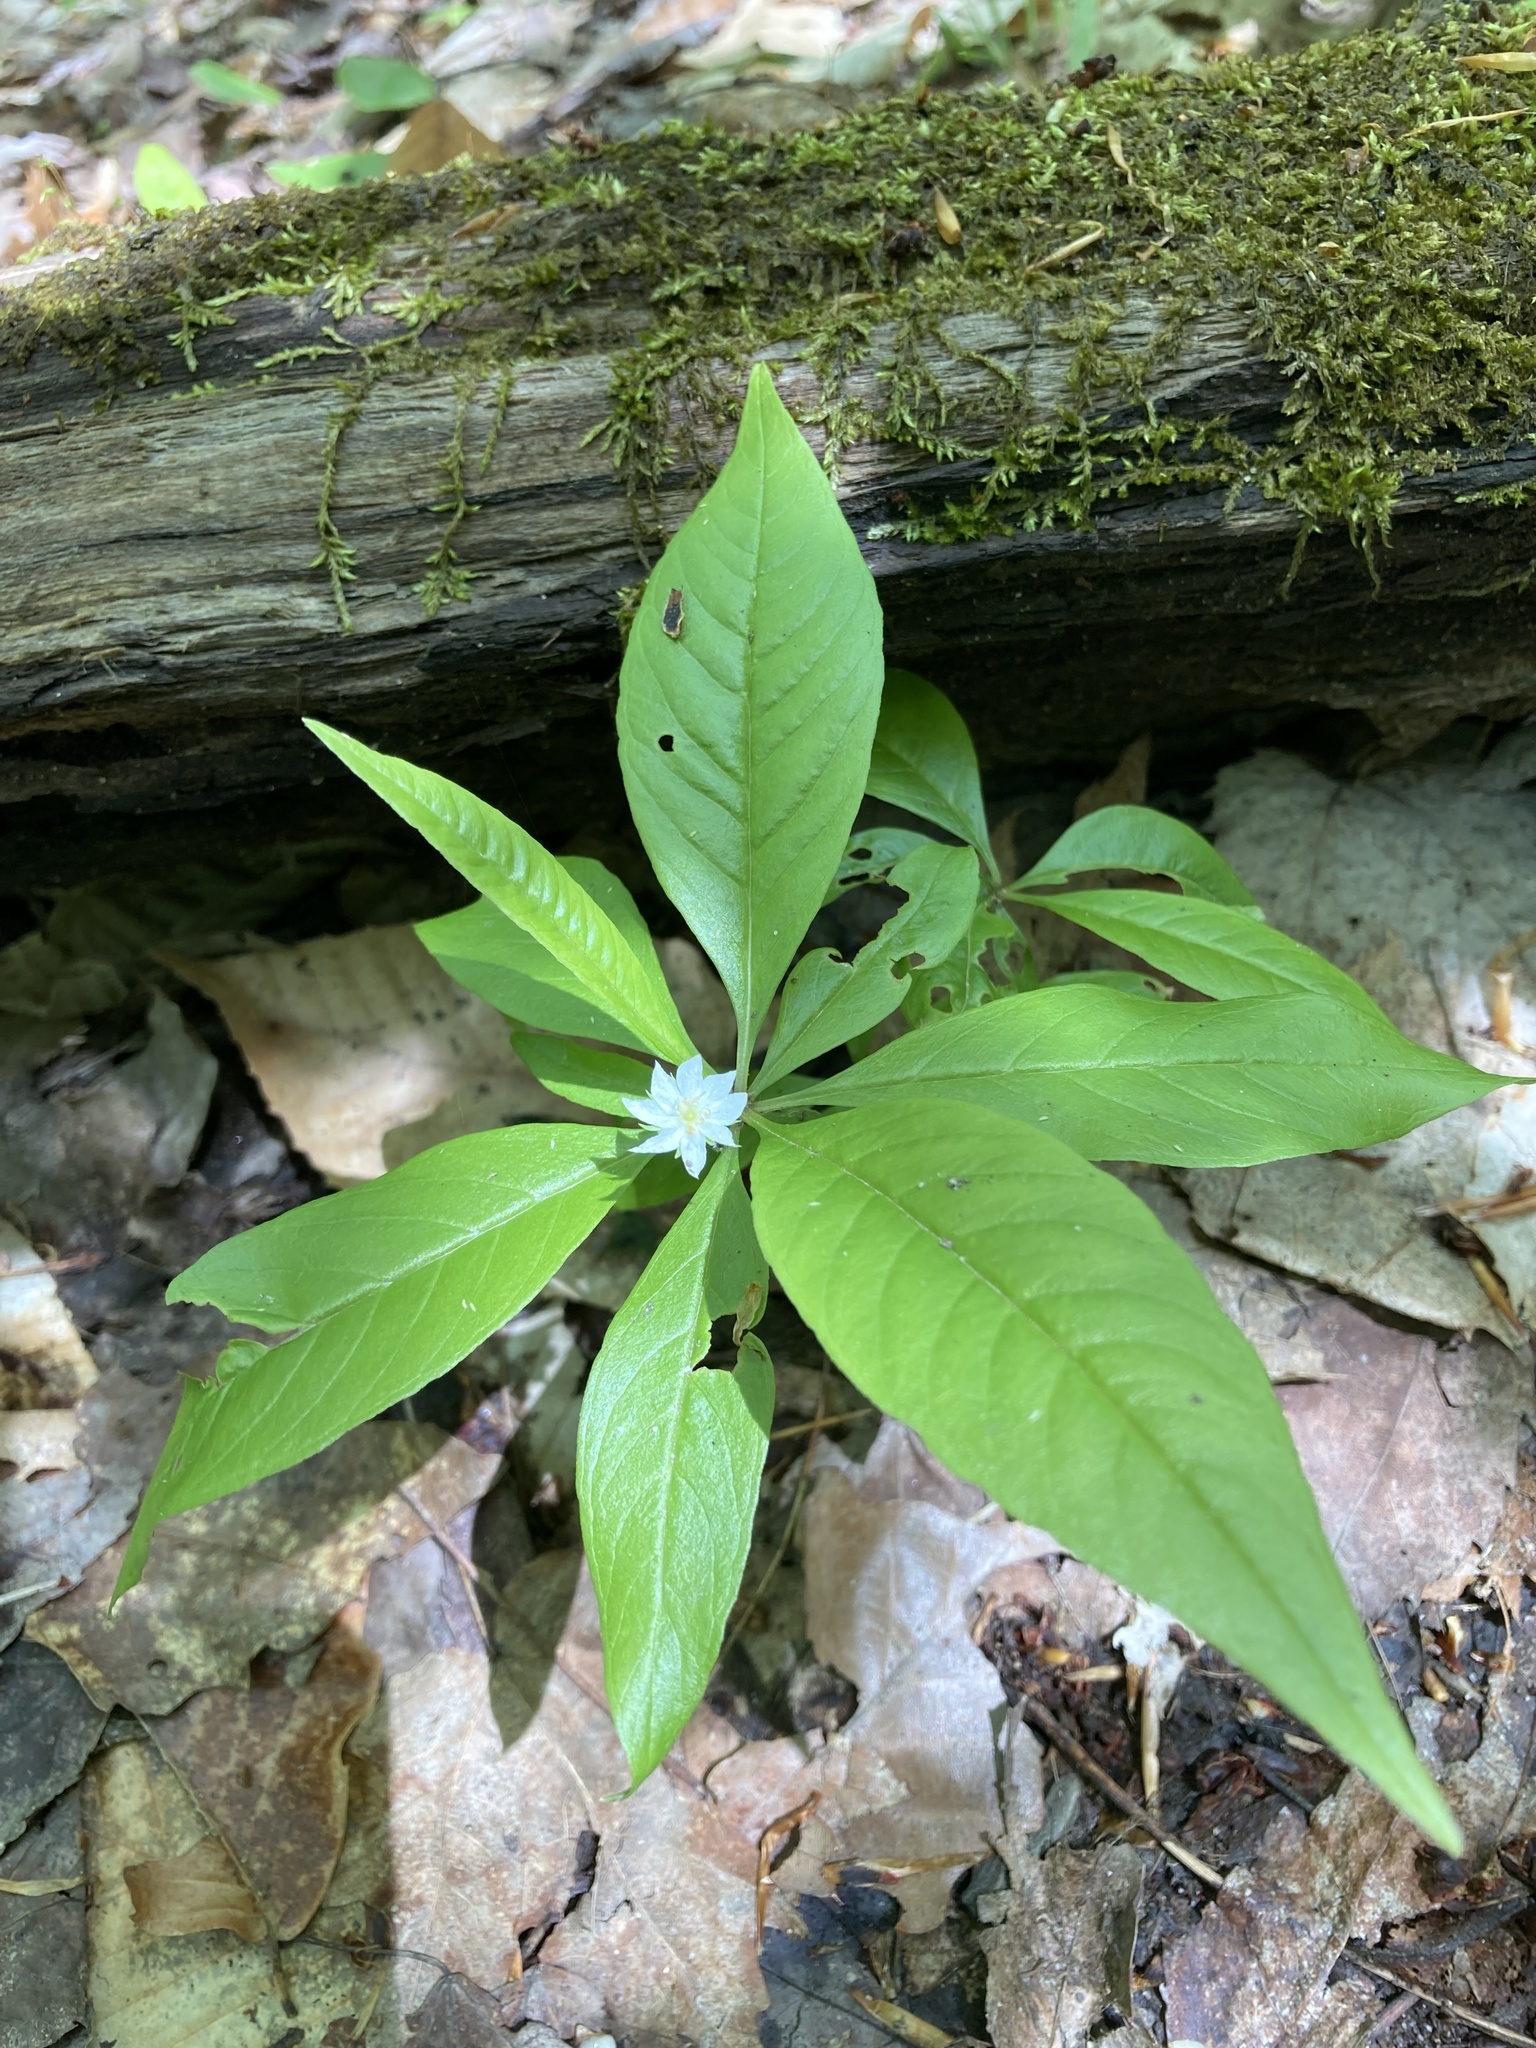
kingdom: Plantae
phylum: Tracheophyta
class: Magnoliopsida
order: Ericales
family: Primulaceae
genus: Lysimachia
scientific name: Lysimachia borealis
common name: American starflower
